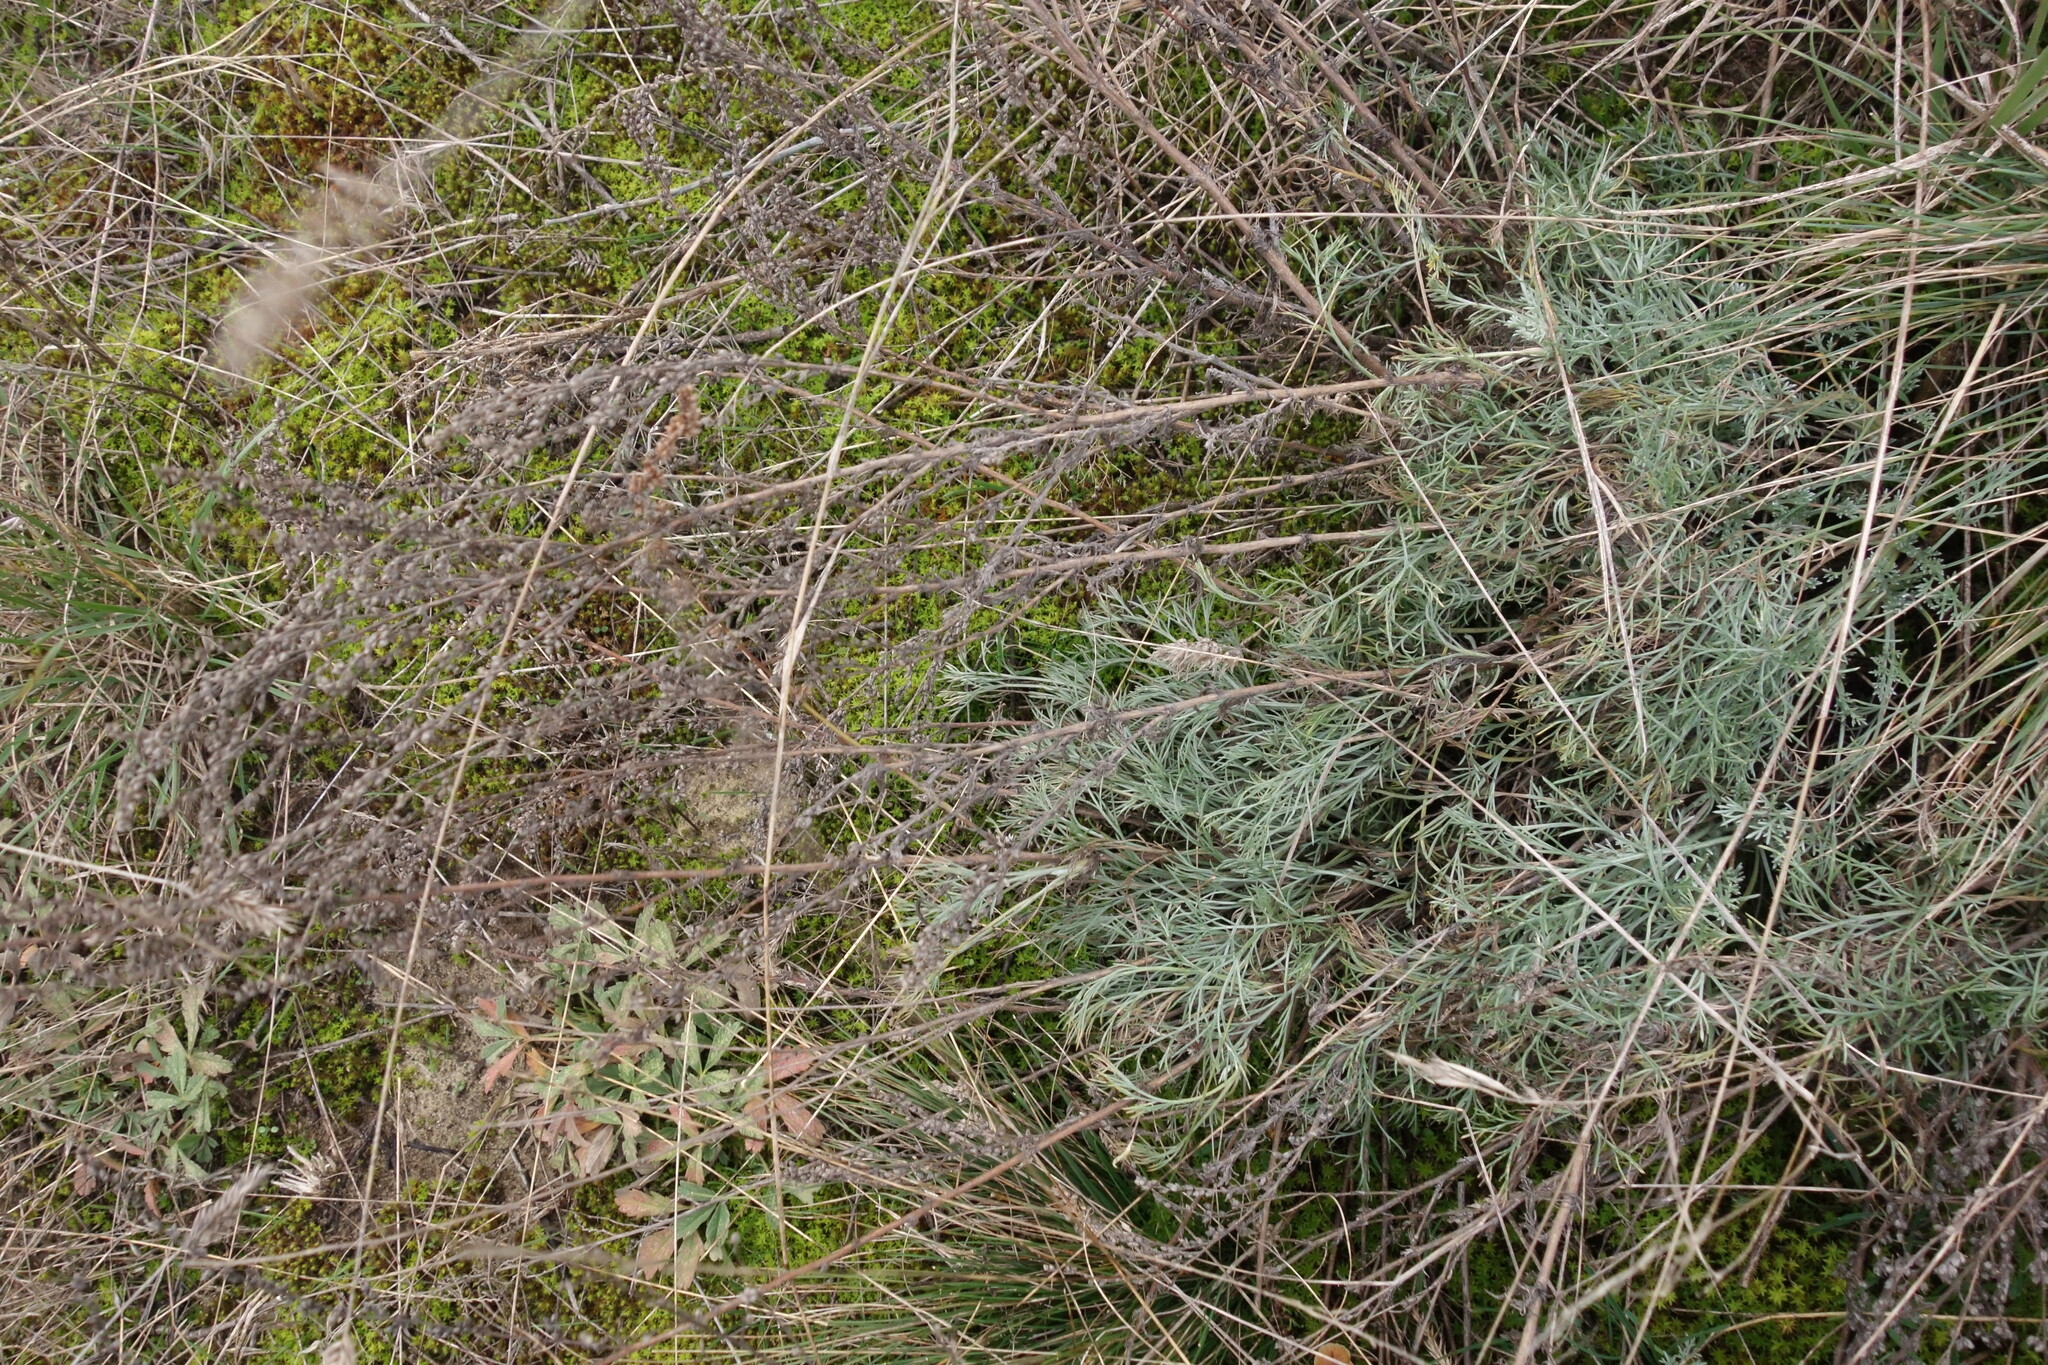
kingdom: Plantae
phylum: Tracheophyta
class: Magnoliopsida
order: Asterales
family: Asteraceae
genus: Artemisia
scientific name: Artemisia campestris
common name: Field wormwood
